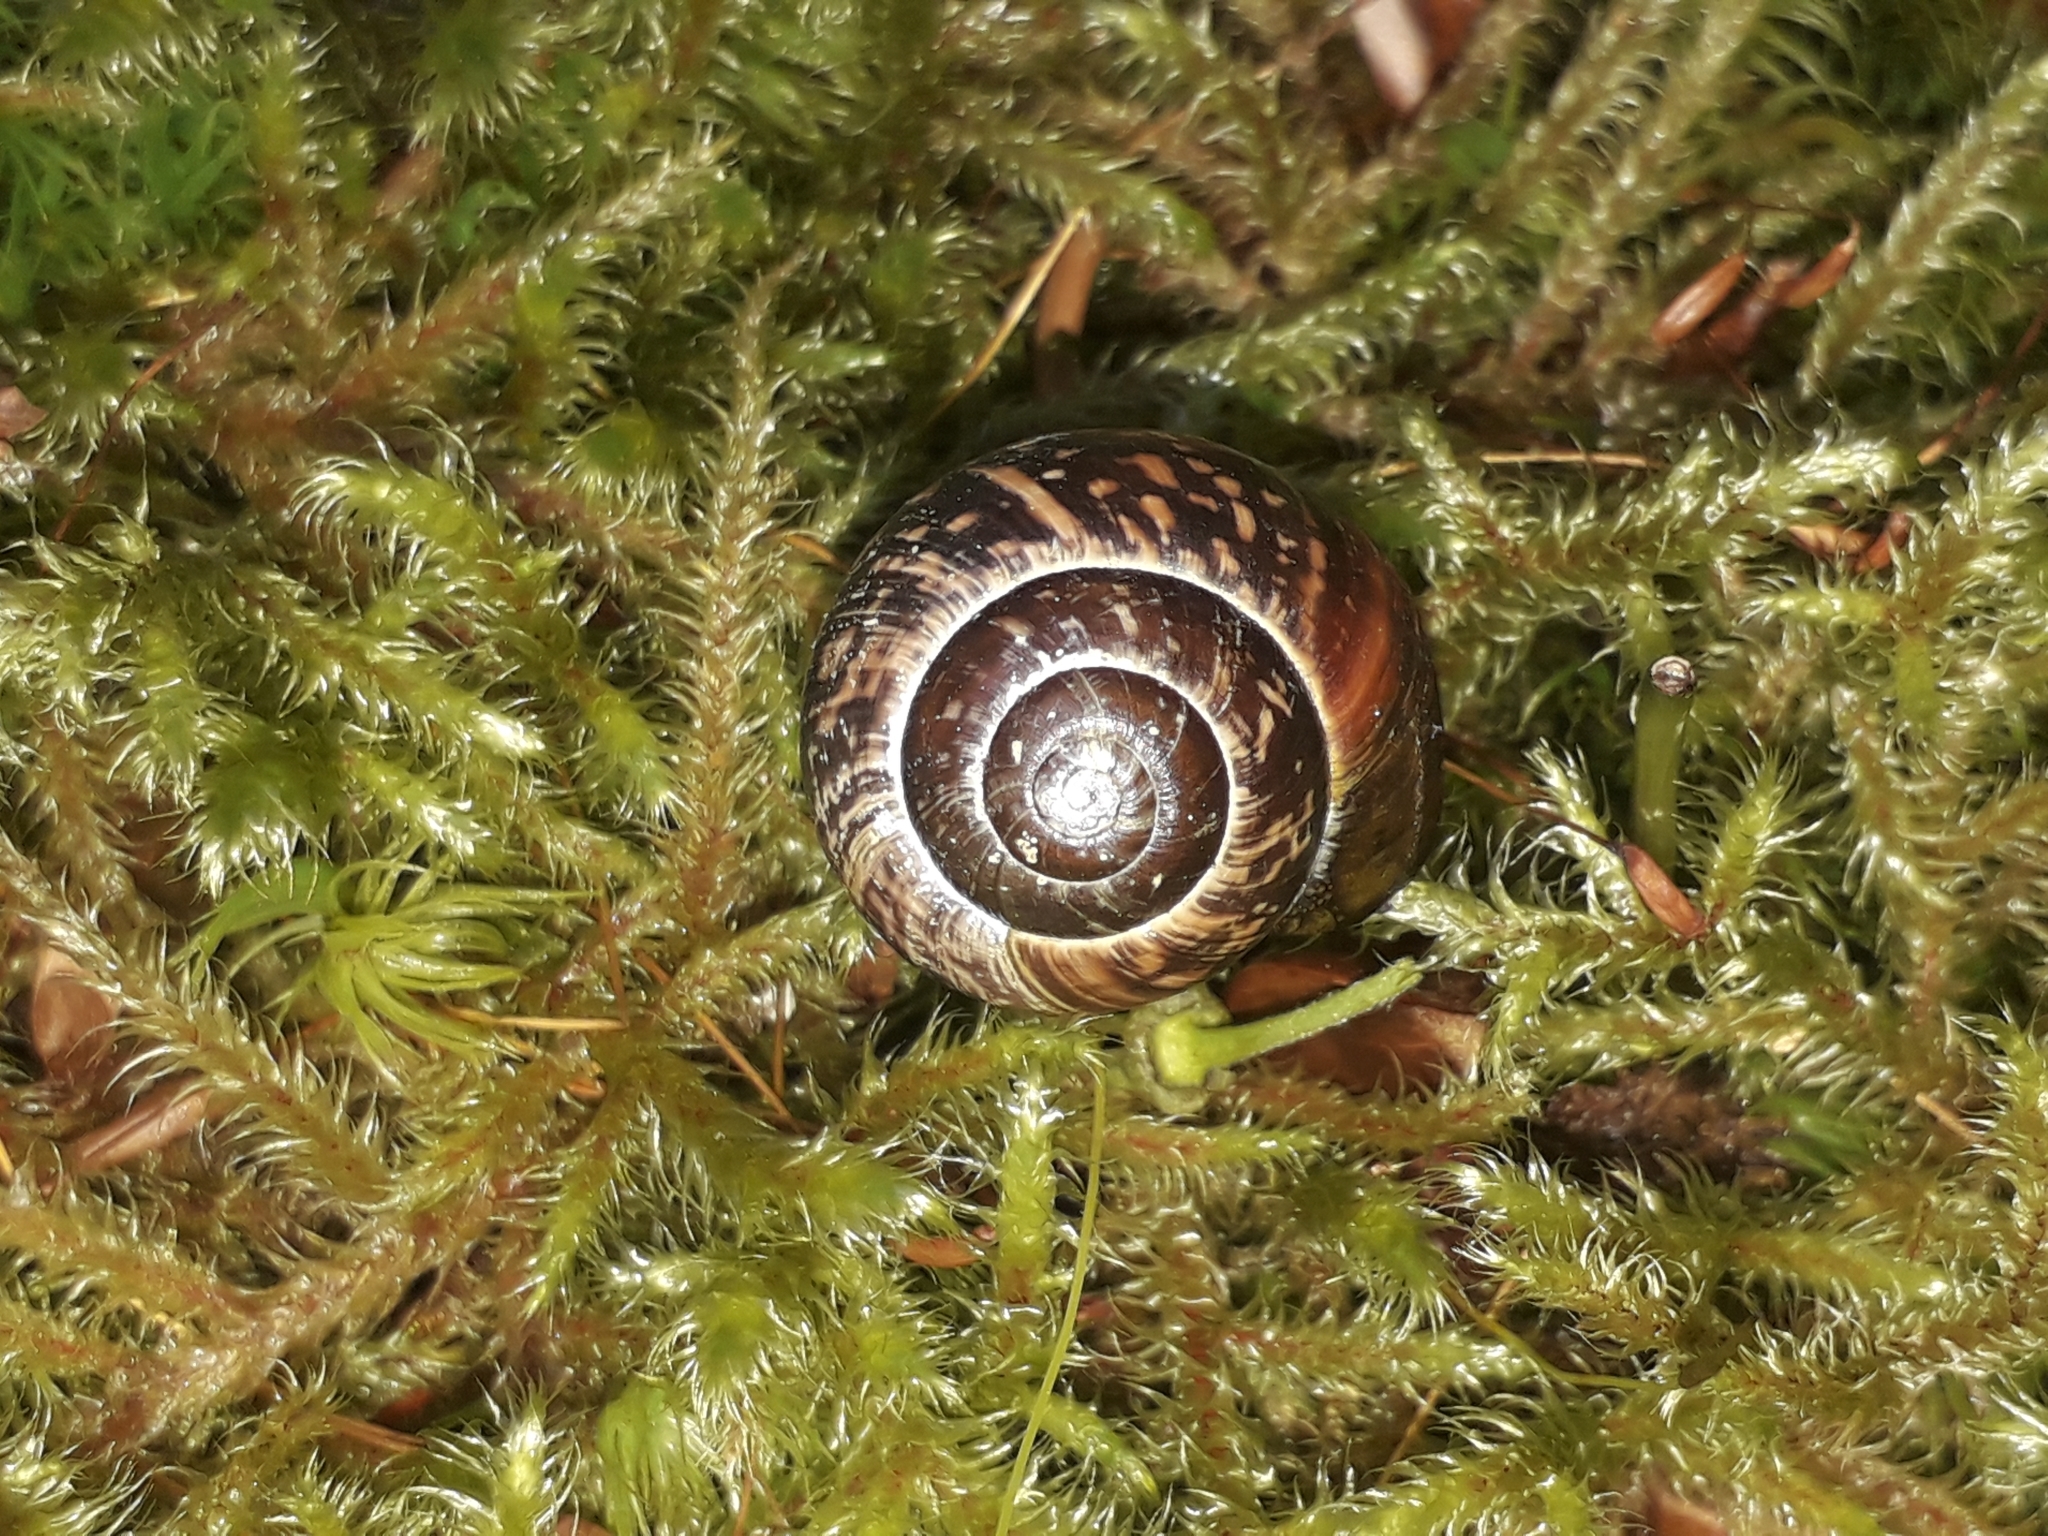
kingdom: Animalia
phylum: Mollusca
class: Gastropoda
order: Stylommatophora
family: Helicidae
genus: Arianta
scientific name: Arianta arbustorum
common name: Copse snail
